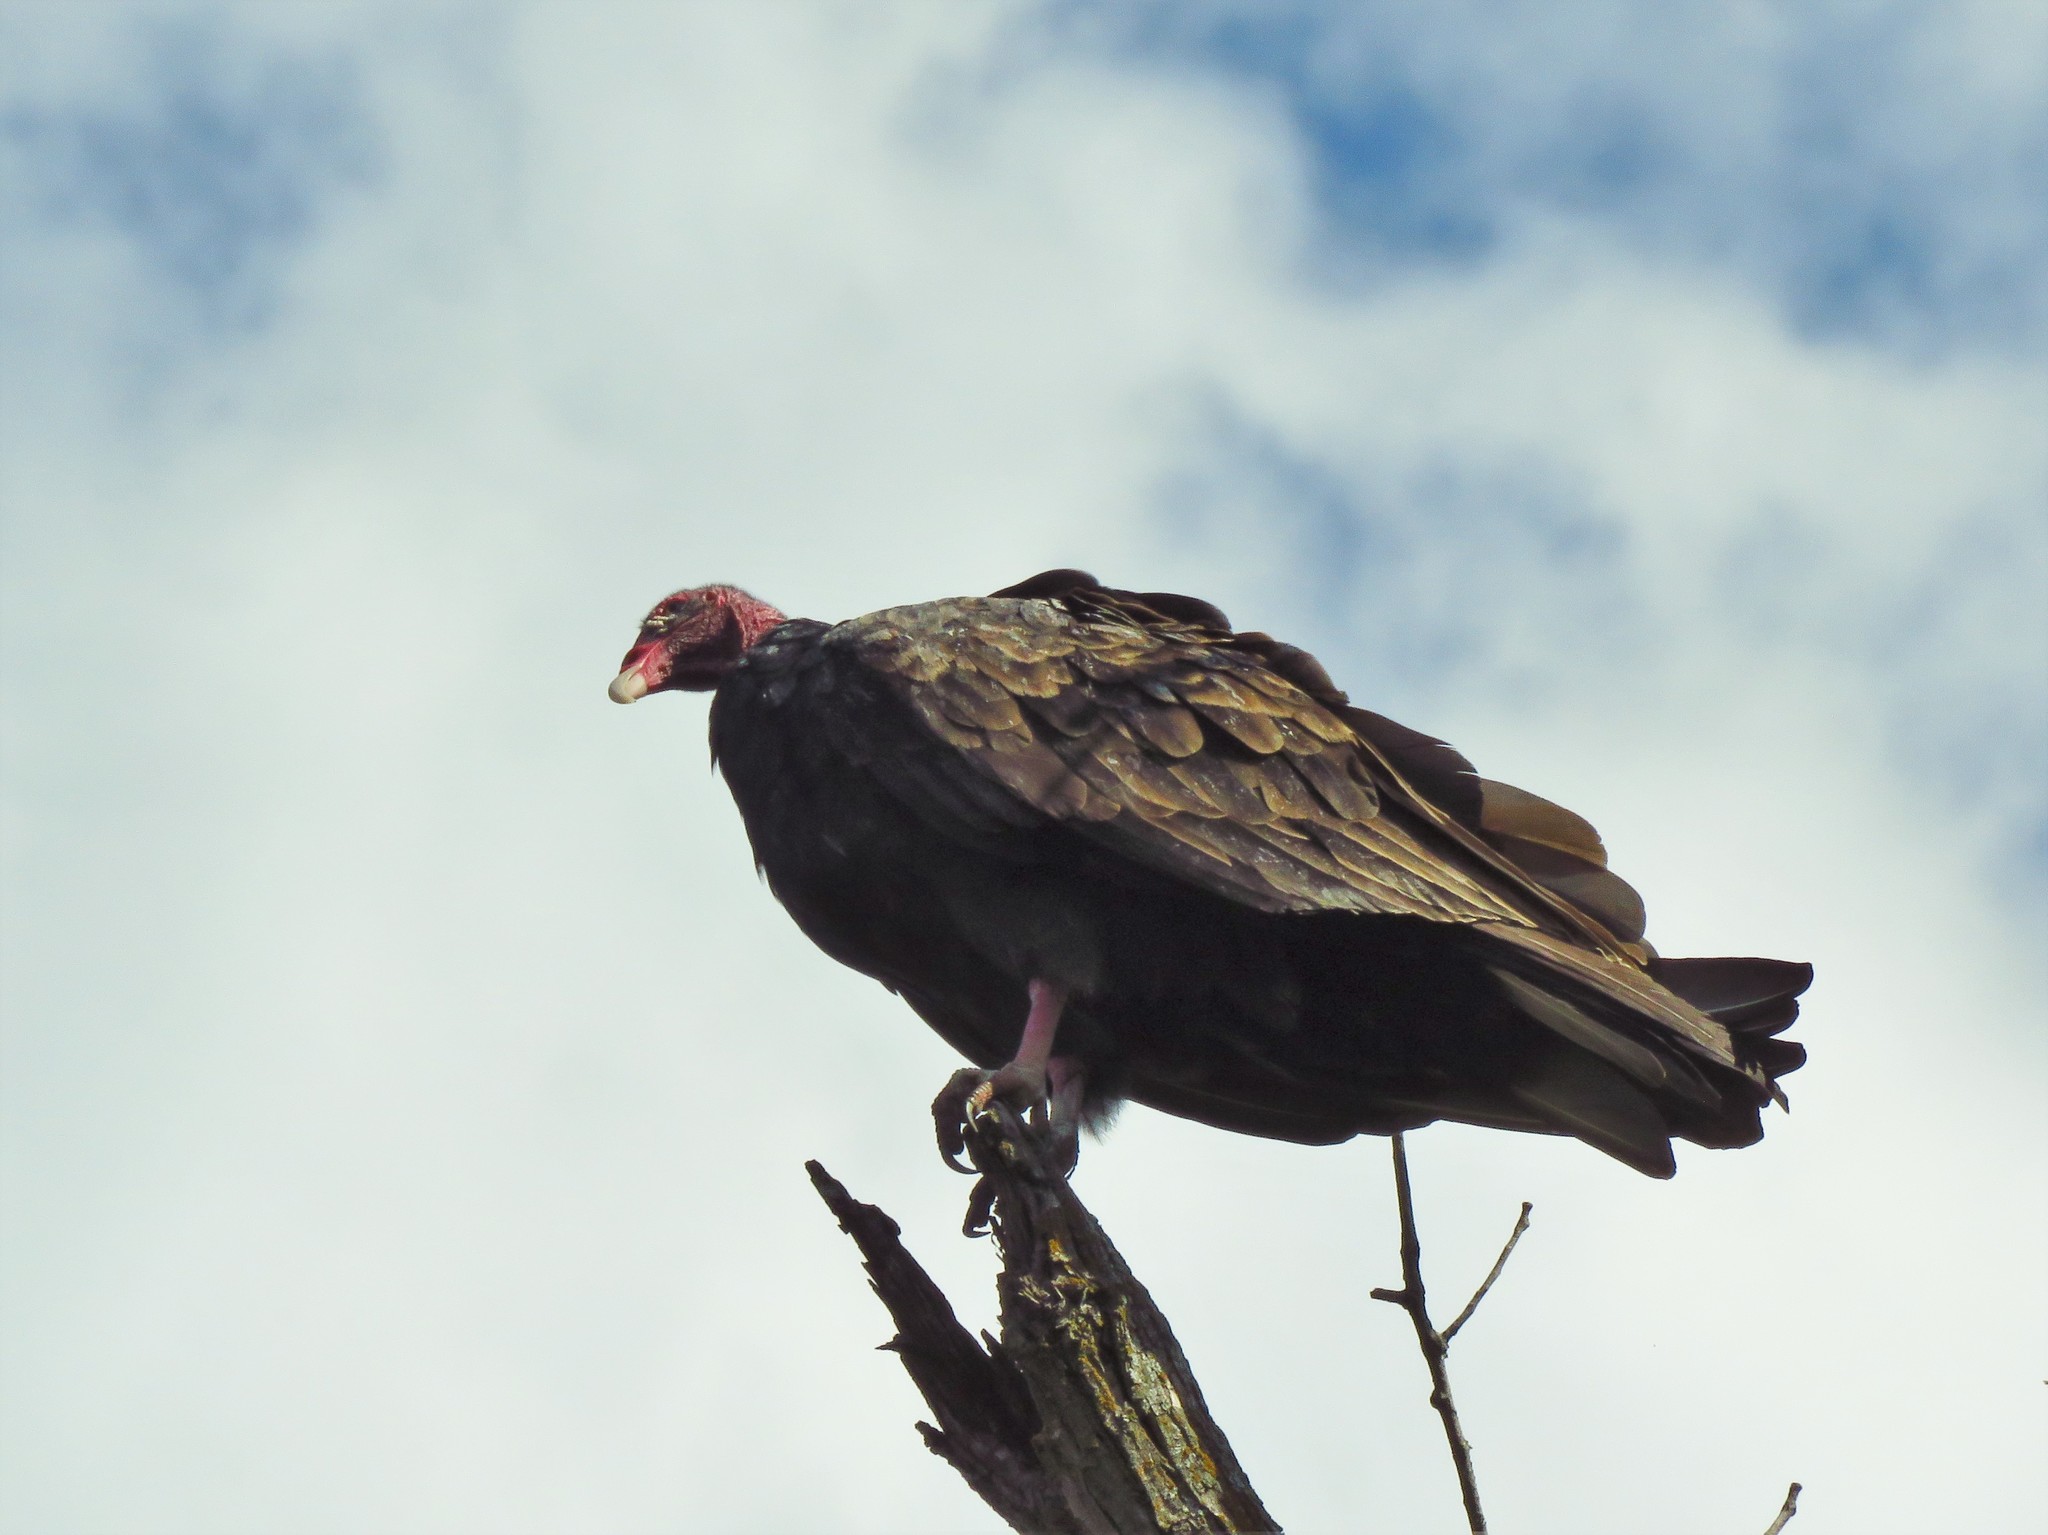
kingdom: Animalia
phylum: Chordata
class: Aves
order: Accipitriformes
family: Cathartidae
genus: Cathartes
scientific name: Cathartes aura
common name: Turkey vulture
